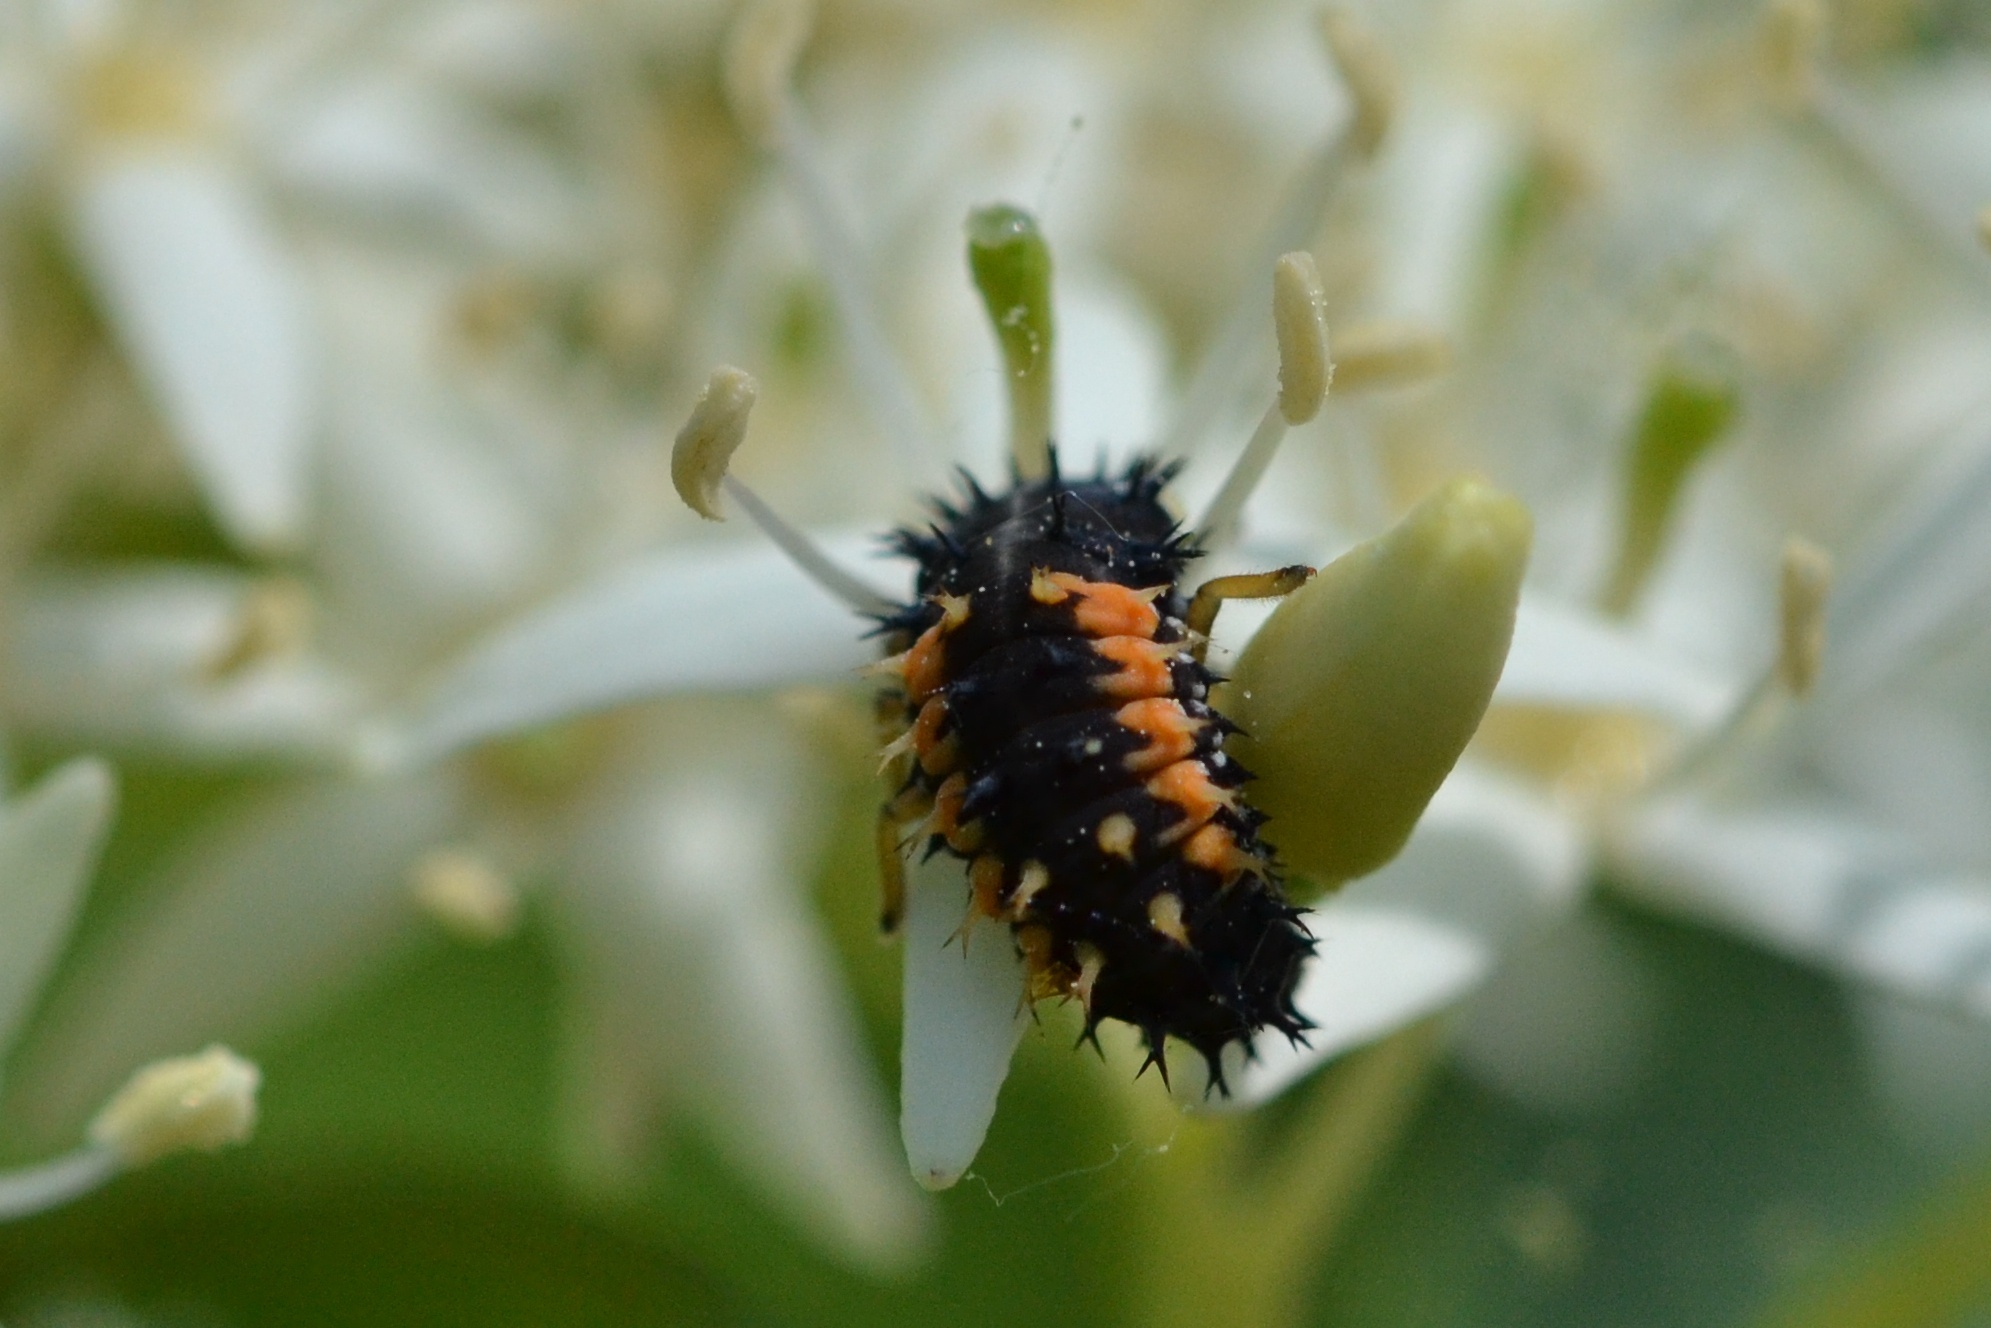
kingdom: Animalia
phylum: Arthropoda
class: Insecta
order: Coleoptera
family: Coccinellidae
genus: Harmonia
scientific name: Harmonia axyridis
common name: Harlequin ladybird
